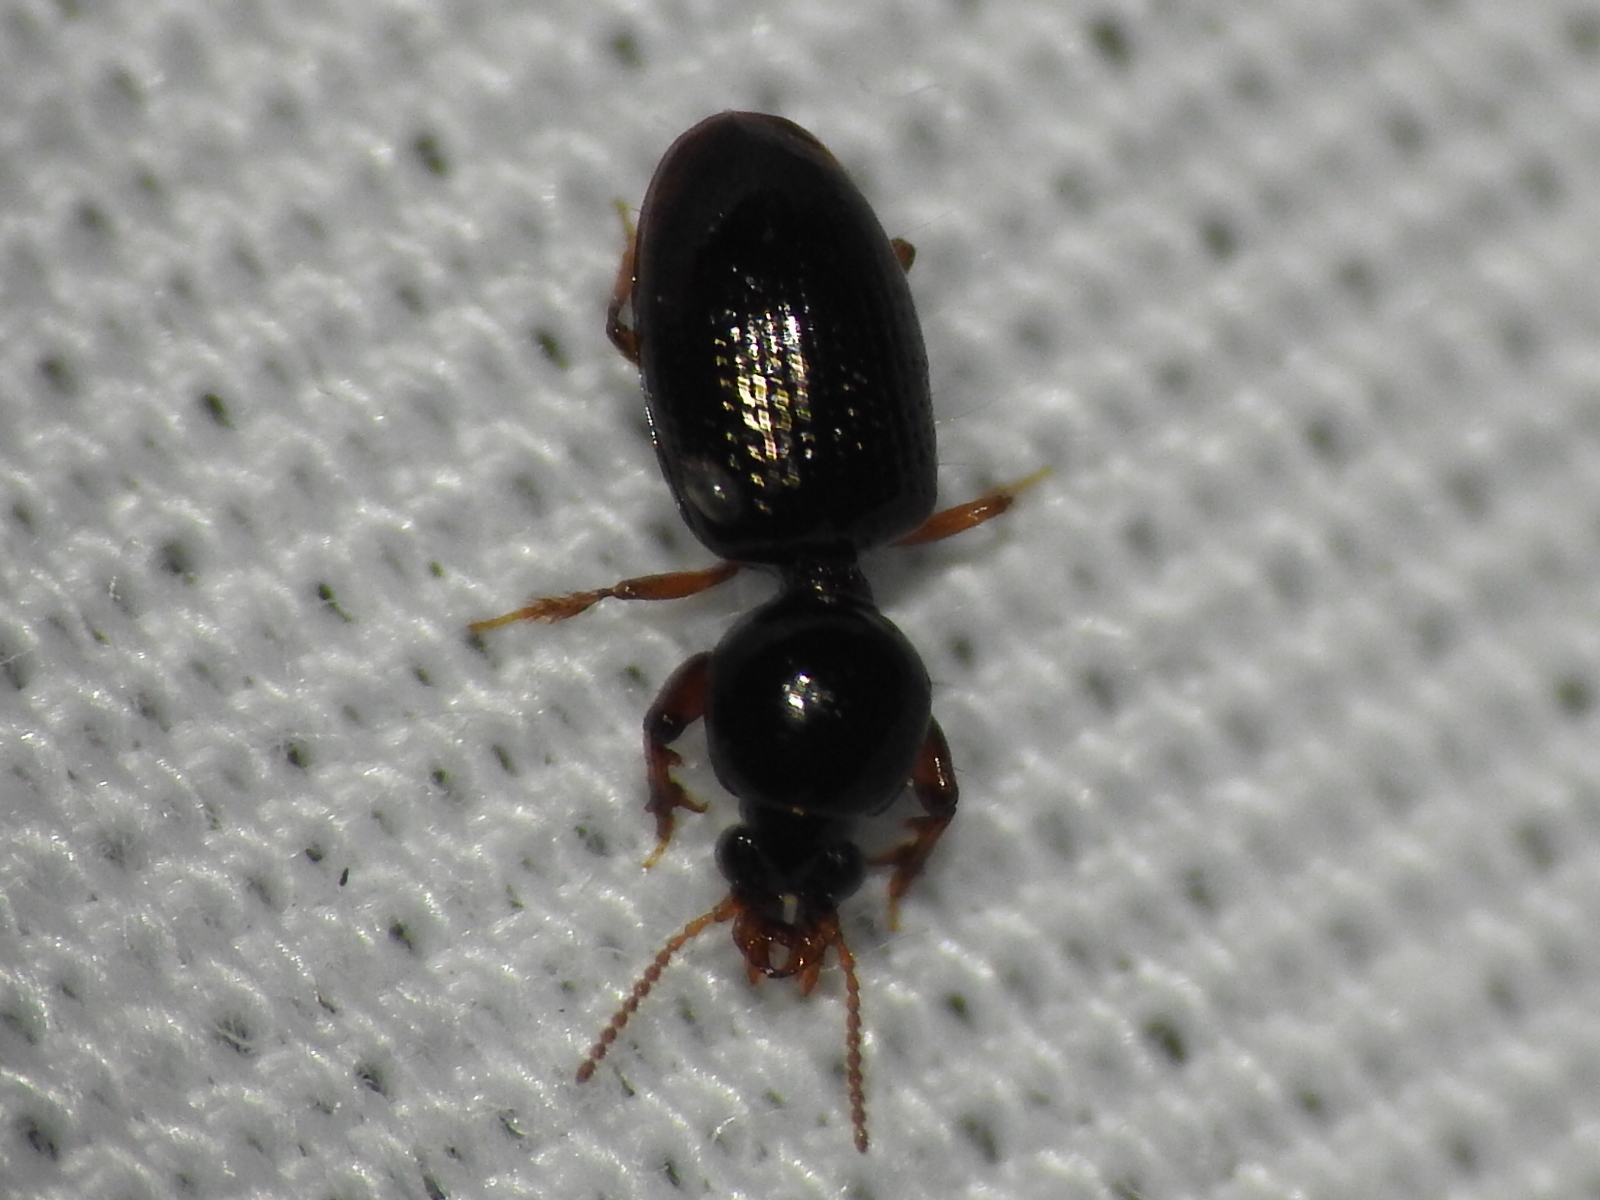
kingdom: Animalia
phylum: Arthropoda
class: Insecta
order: Coleoptera
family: Carabidae
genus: Dyschirius
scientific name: Dyschirius abbreviatus
